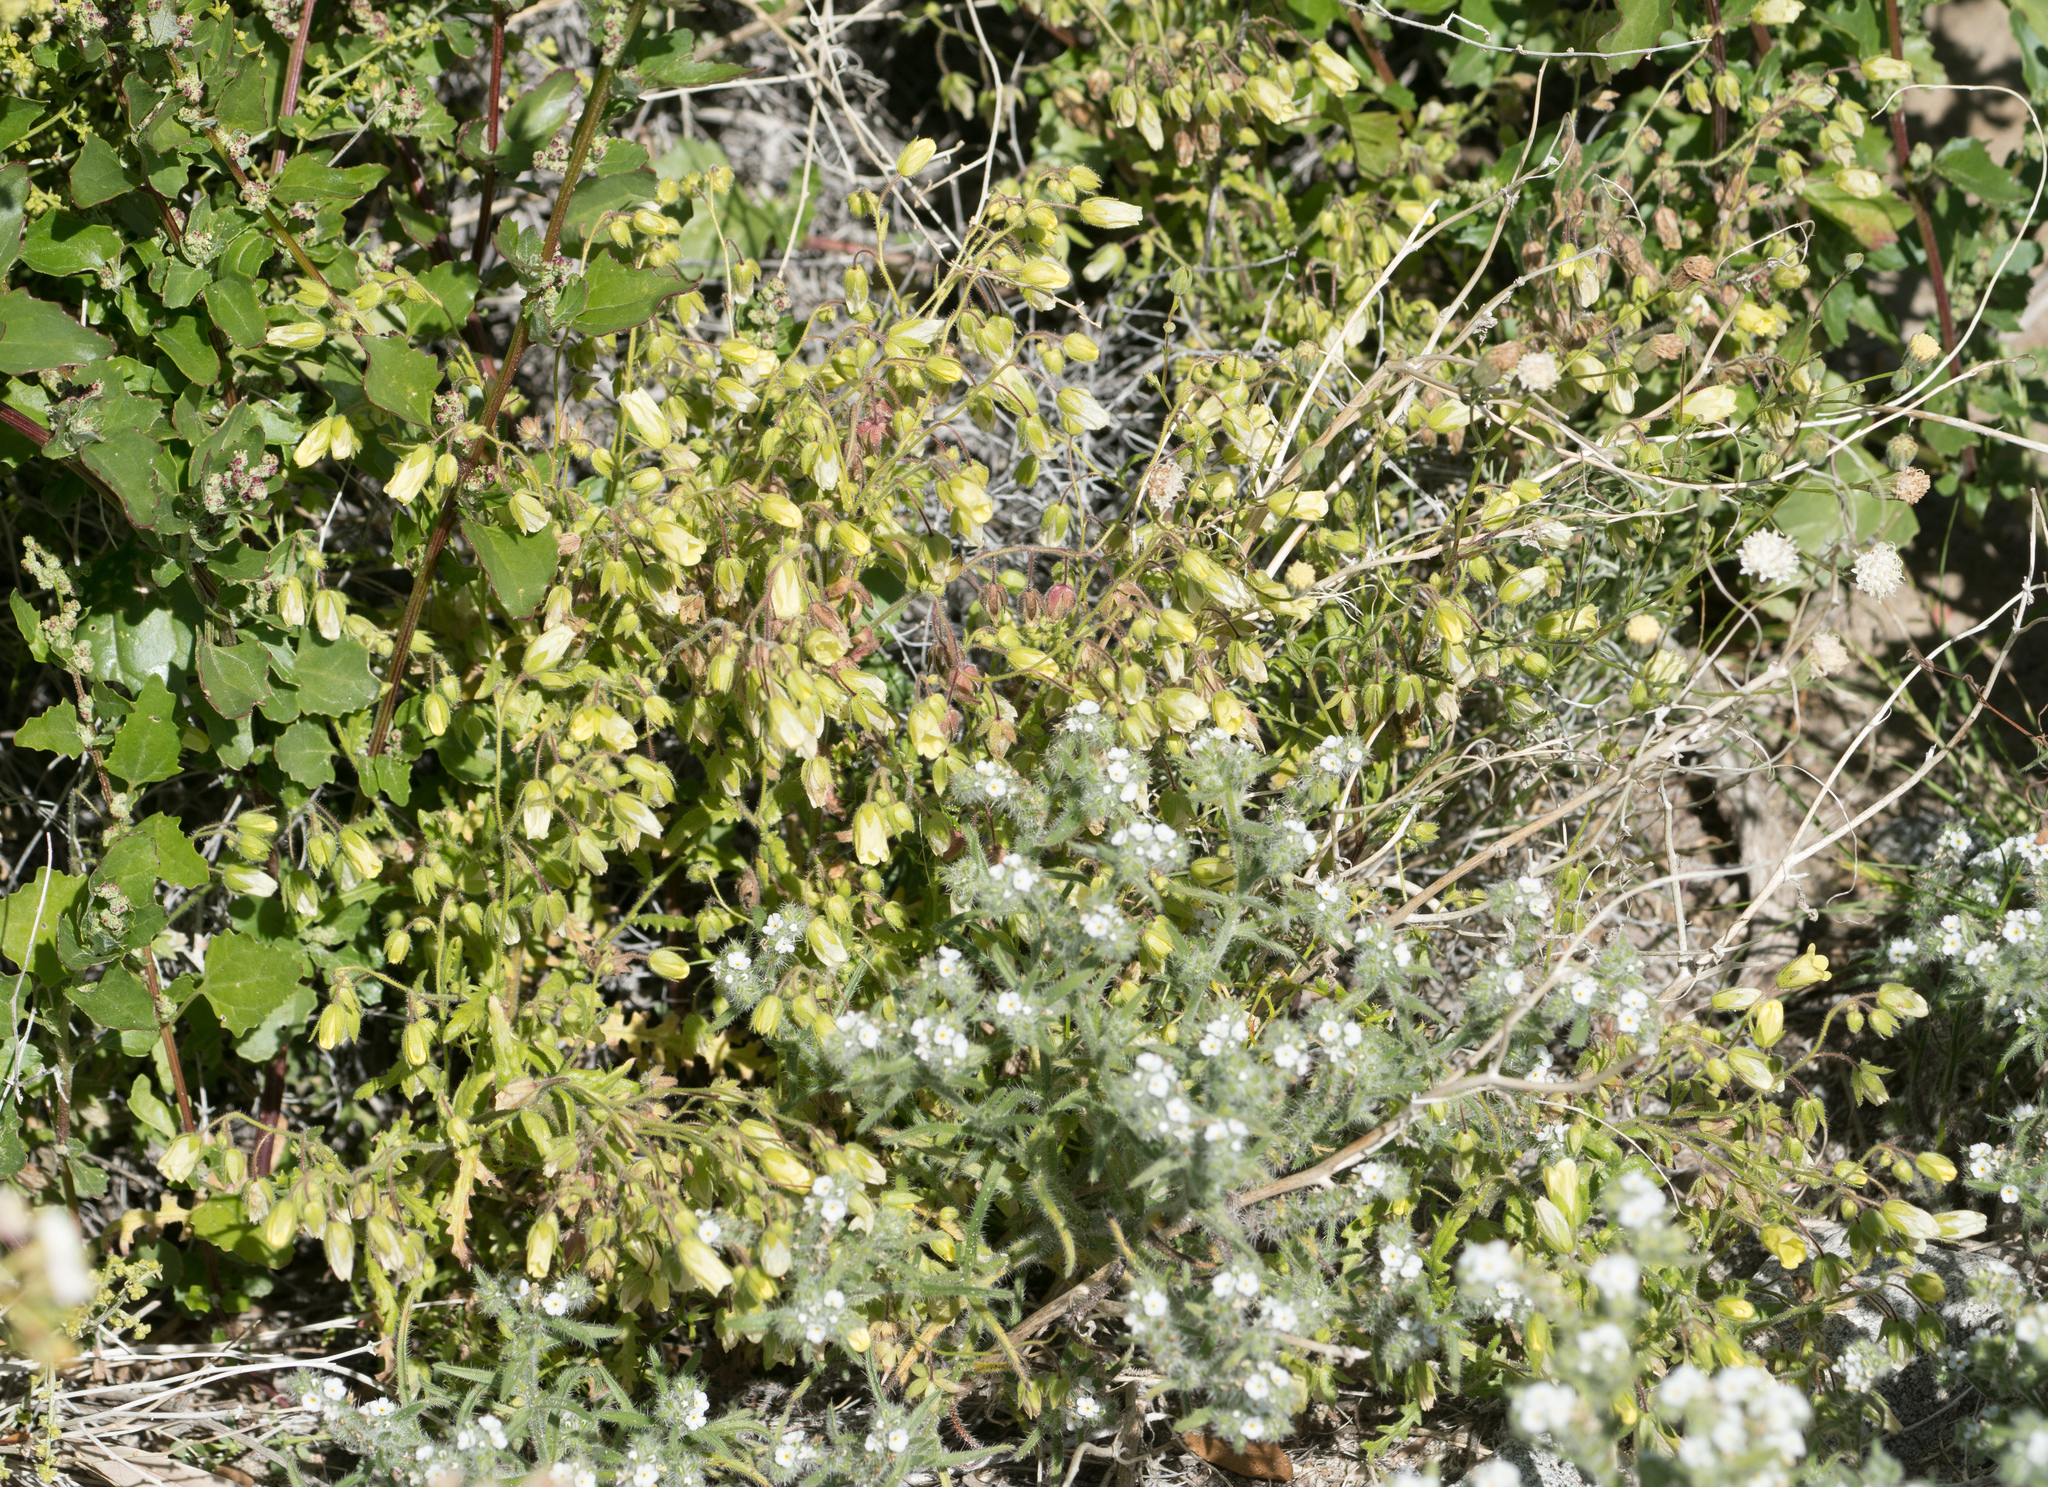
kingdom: Plantae
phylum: Tracheophyta
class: Magnoliopsida
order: Boraginales
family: Hydrophyllaceae
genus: Emmenanthe
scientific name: Emmenanthe penduliflora
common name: Whispering-bells
